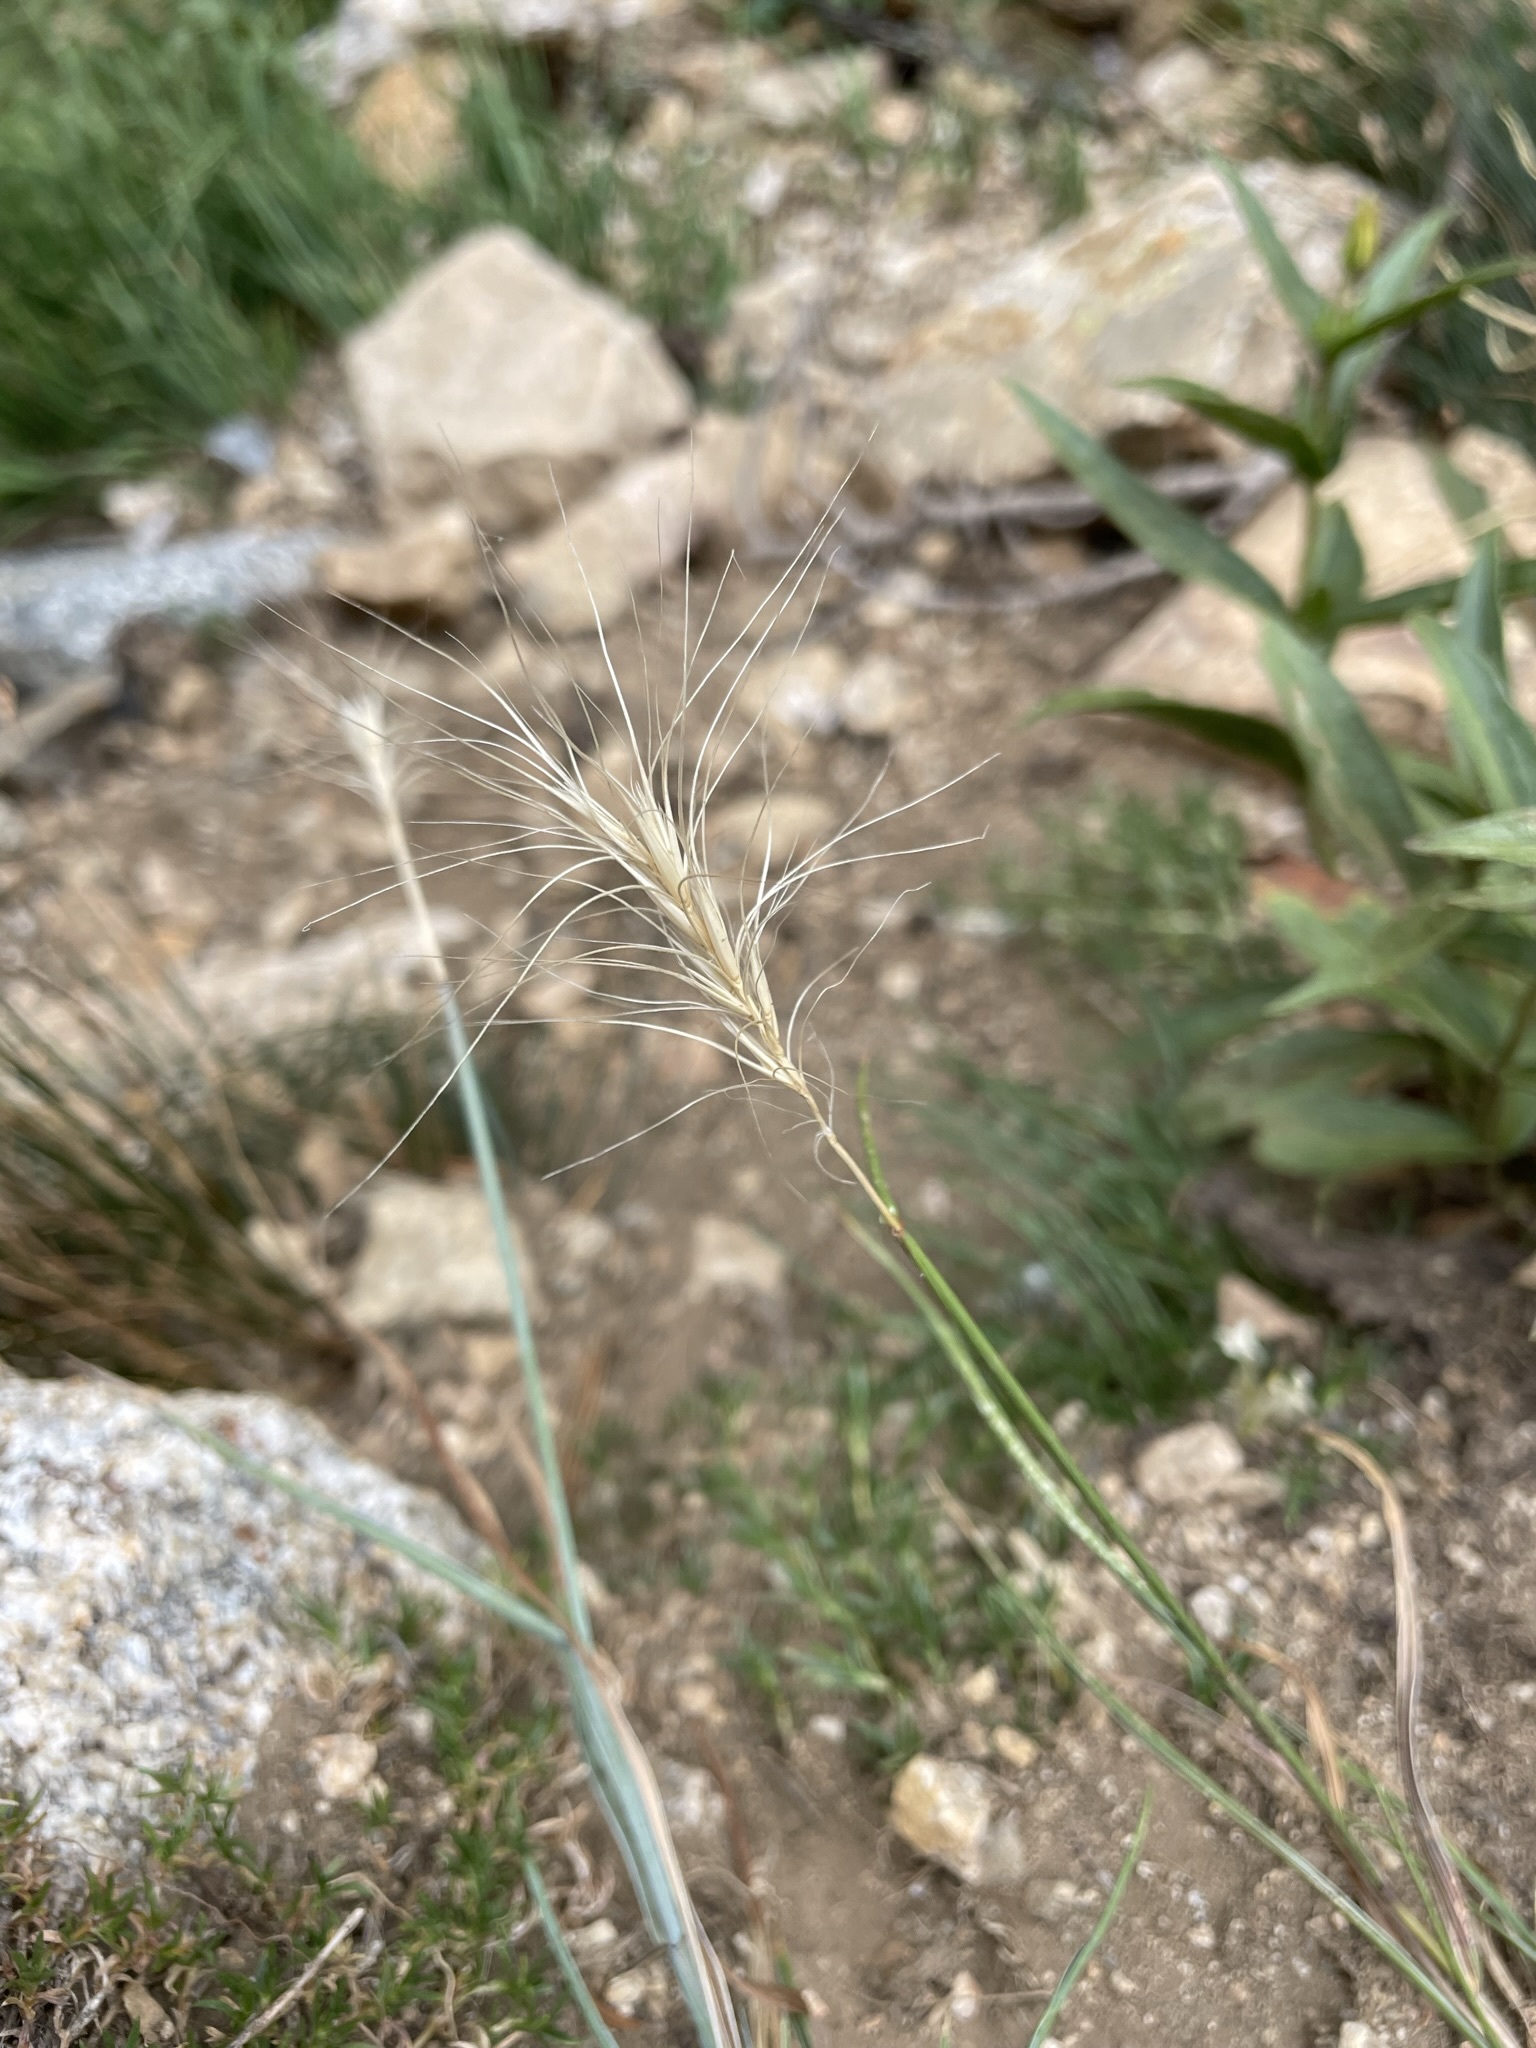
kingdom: Plantae
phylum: Tracheophyta
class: Liliopsida
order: Poales
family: Poaceae
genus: Elymus
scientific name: Elymus elymoides
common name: Bottlebrush squirreltail
